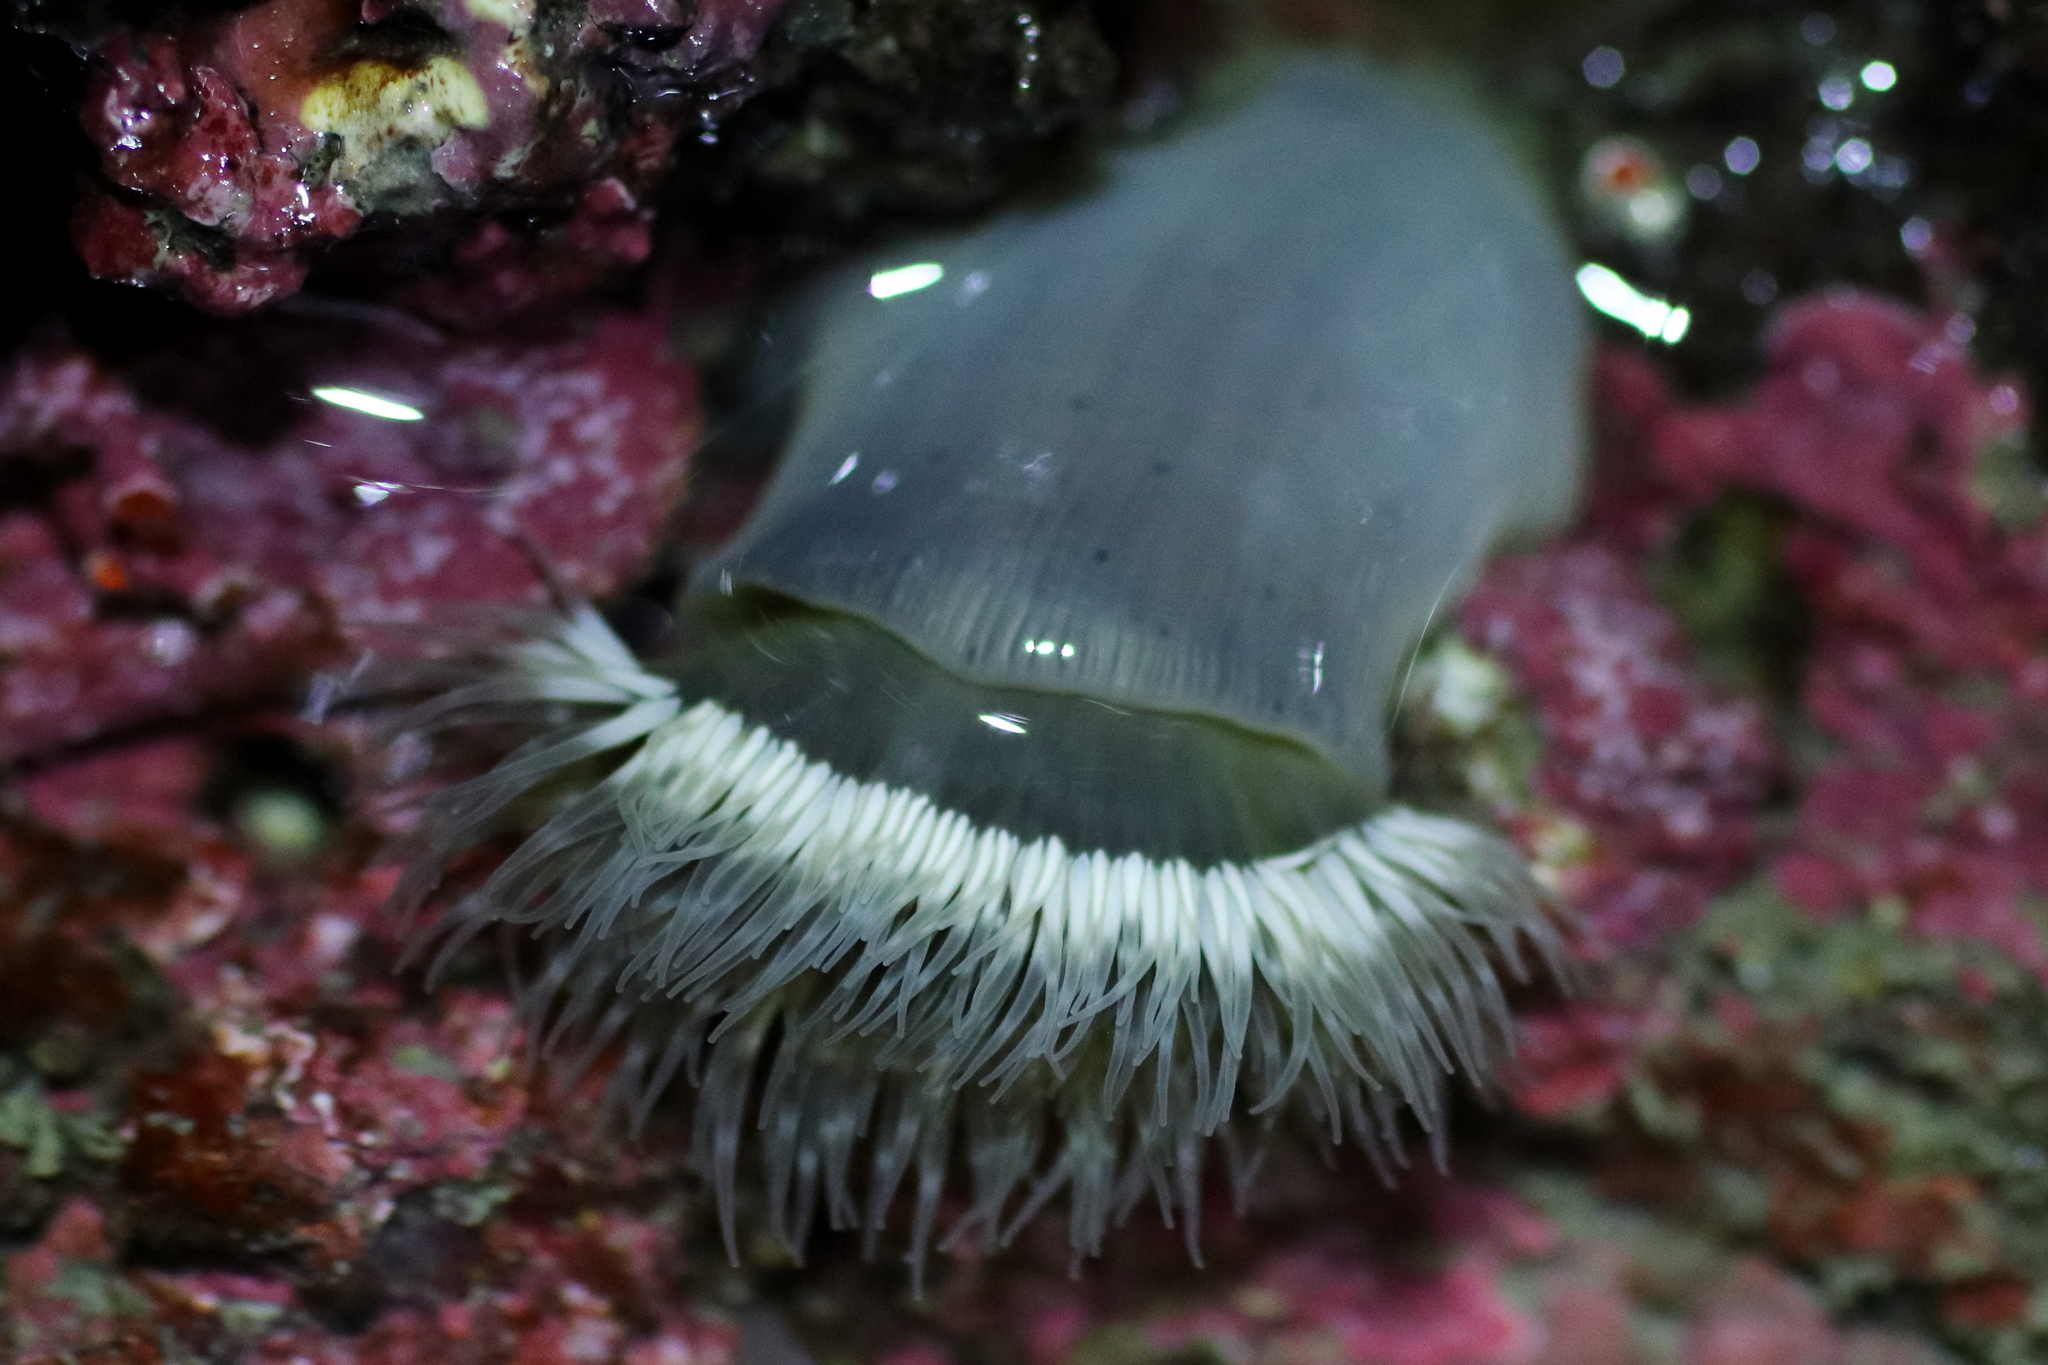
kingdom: Animalia
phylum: Cnidaria
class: Anthozoa
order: Actiniaria
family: Metridiidae
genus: Metridium
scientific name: Metridium senile
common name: Clonal plumose anemone
